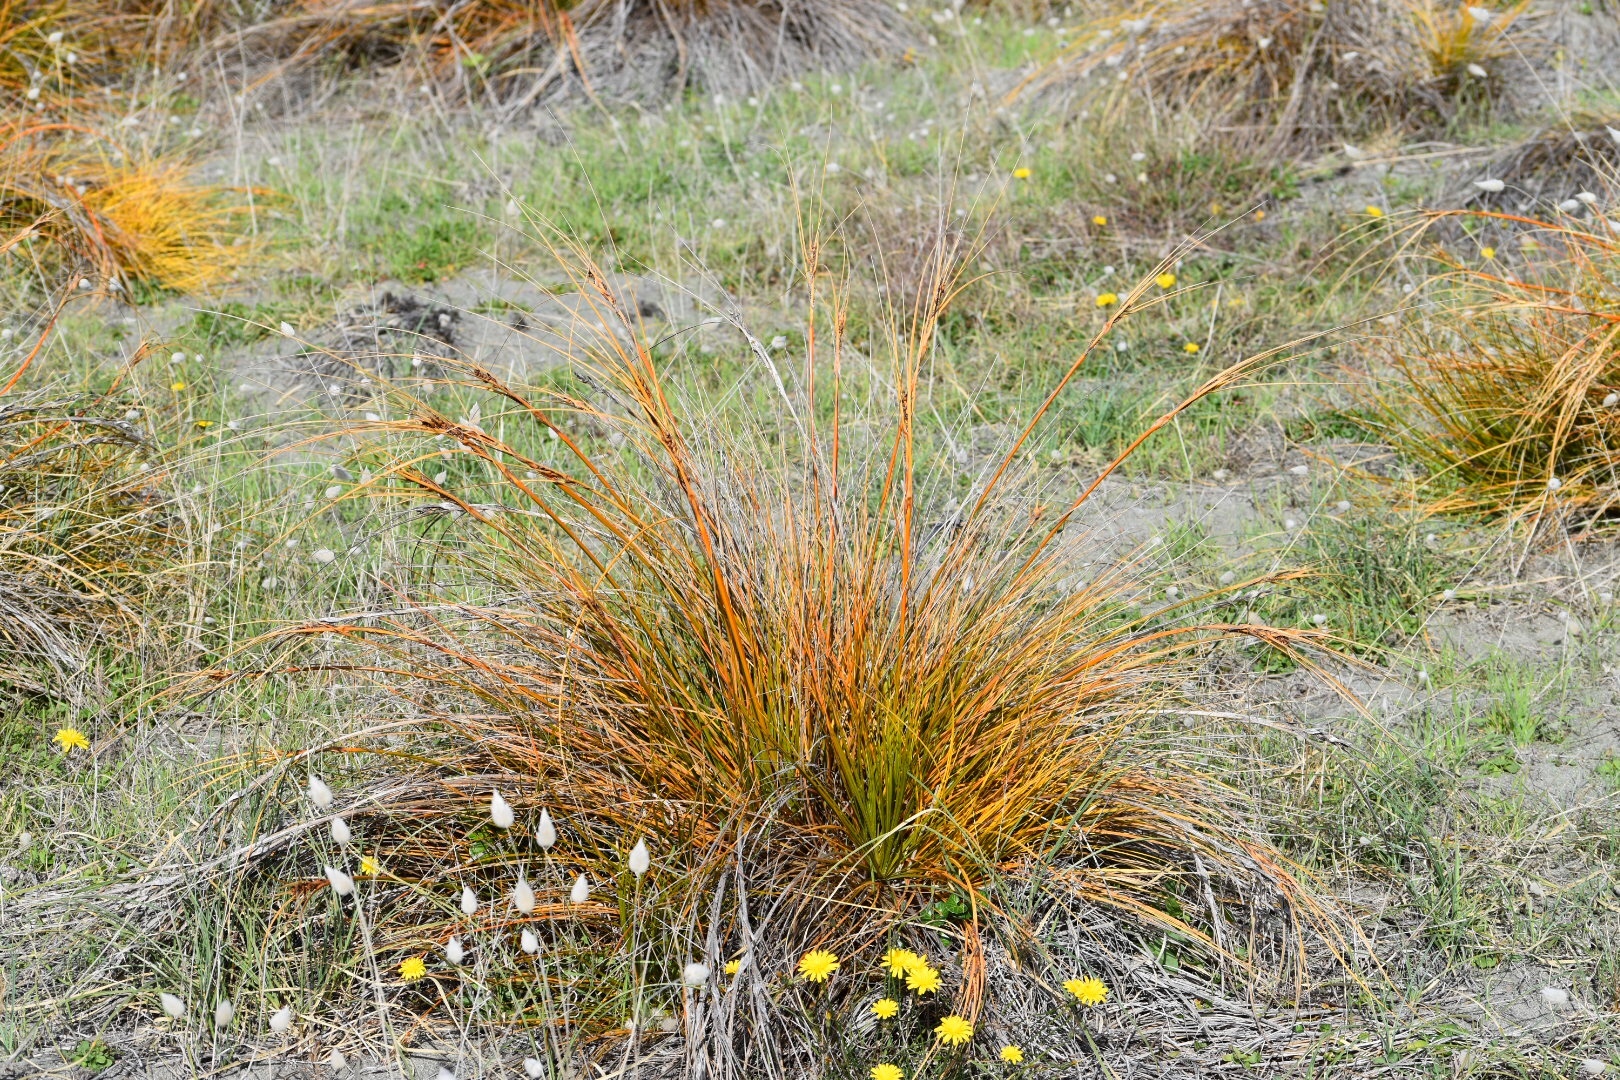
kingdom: Plantae
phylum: Tracheophyta
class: Liliopsida
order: Poales
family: Cyperaceae
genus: Ficinia
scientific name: Ficinia spiralis
